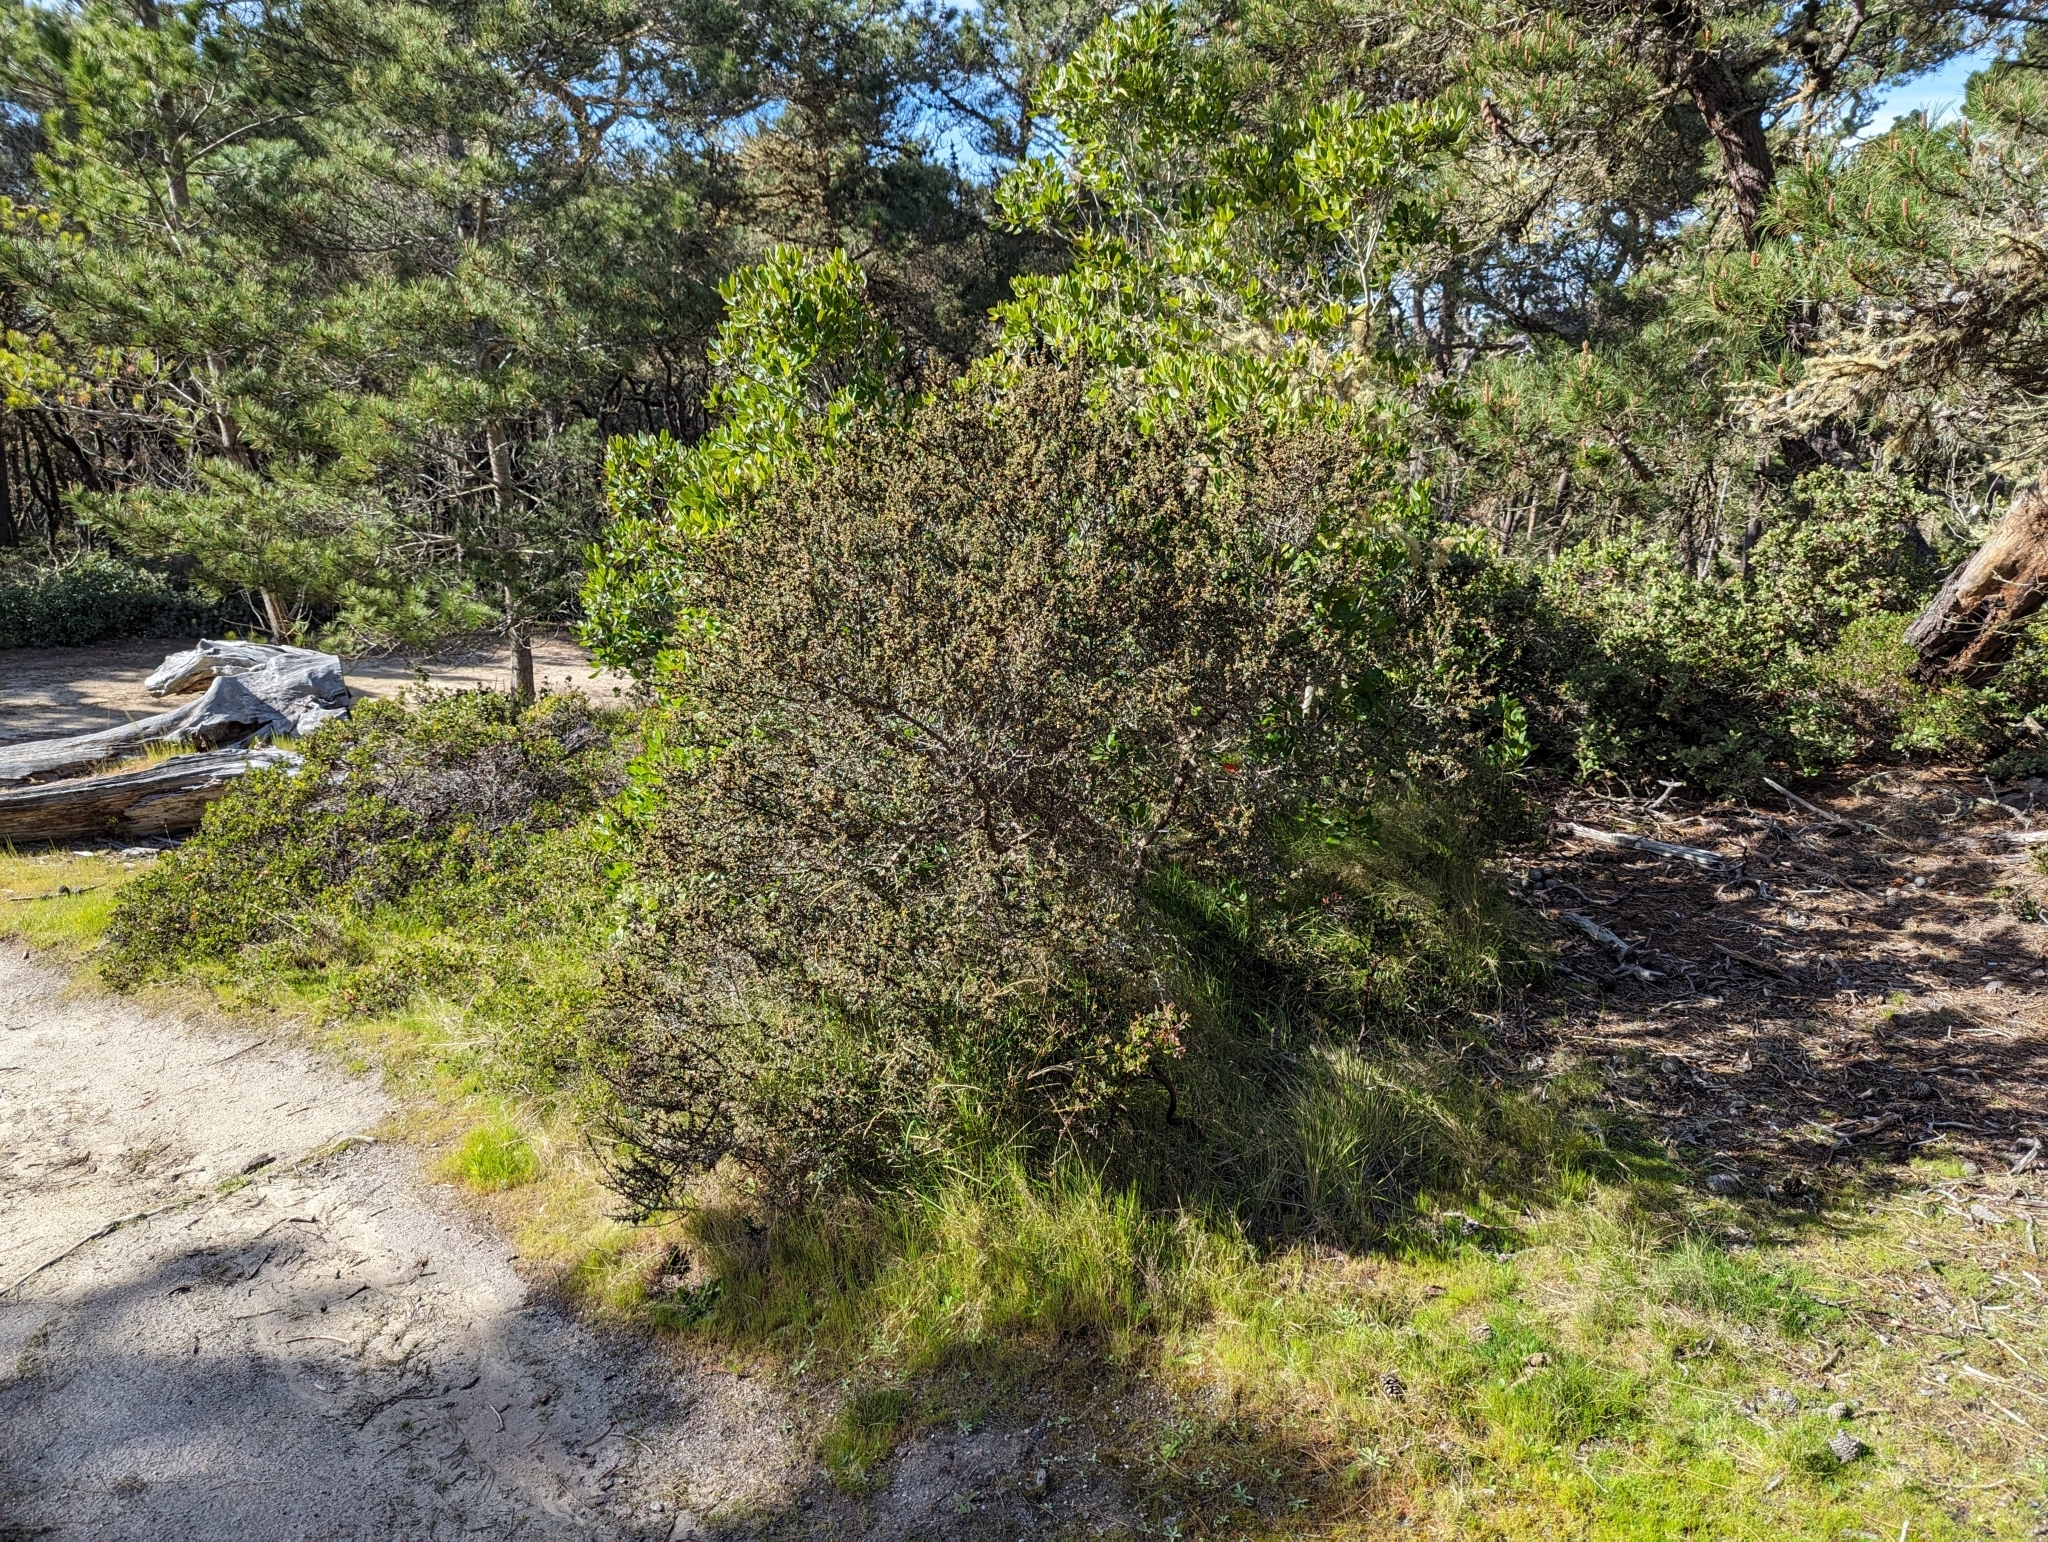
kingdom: Plantae
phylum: Tracheophyta
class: Magnoliopsida
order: Rosales
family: Rhamnaceae
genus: Ceanothus
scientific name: Ceanothus cuneatus
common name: Cuneate ceanothus
